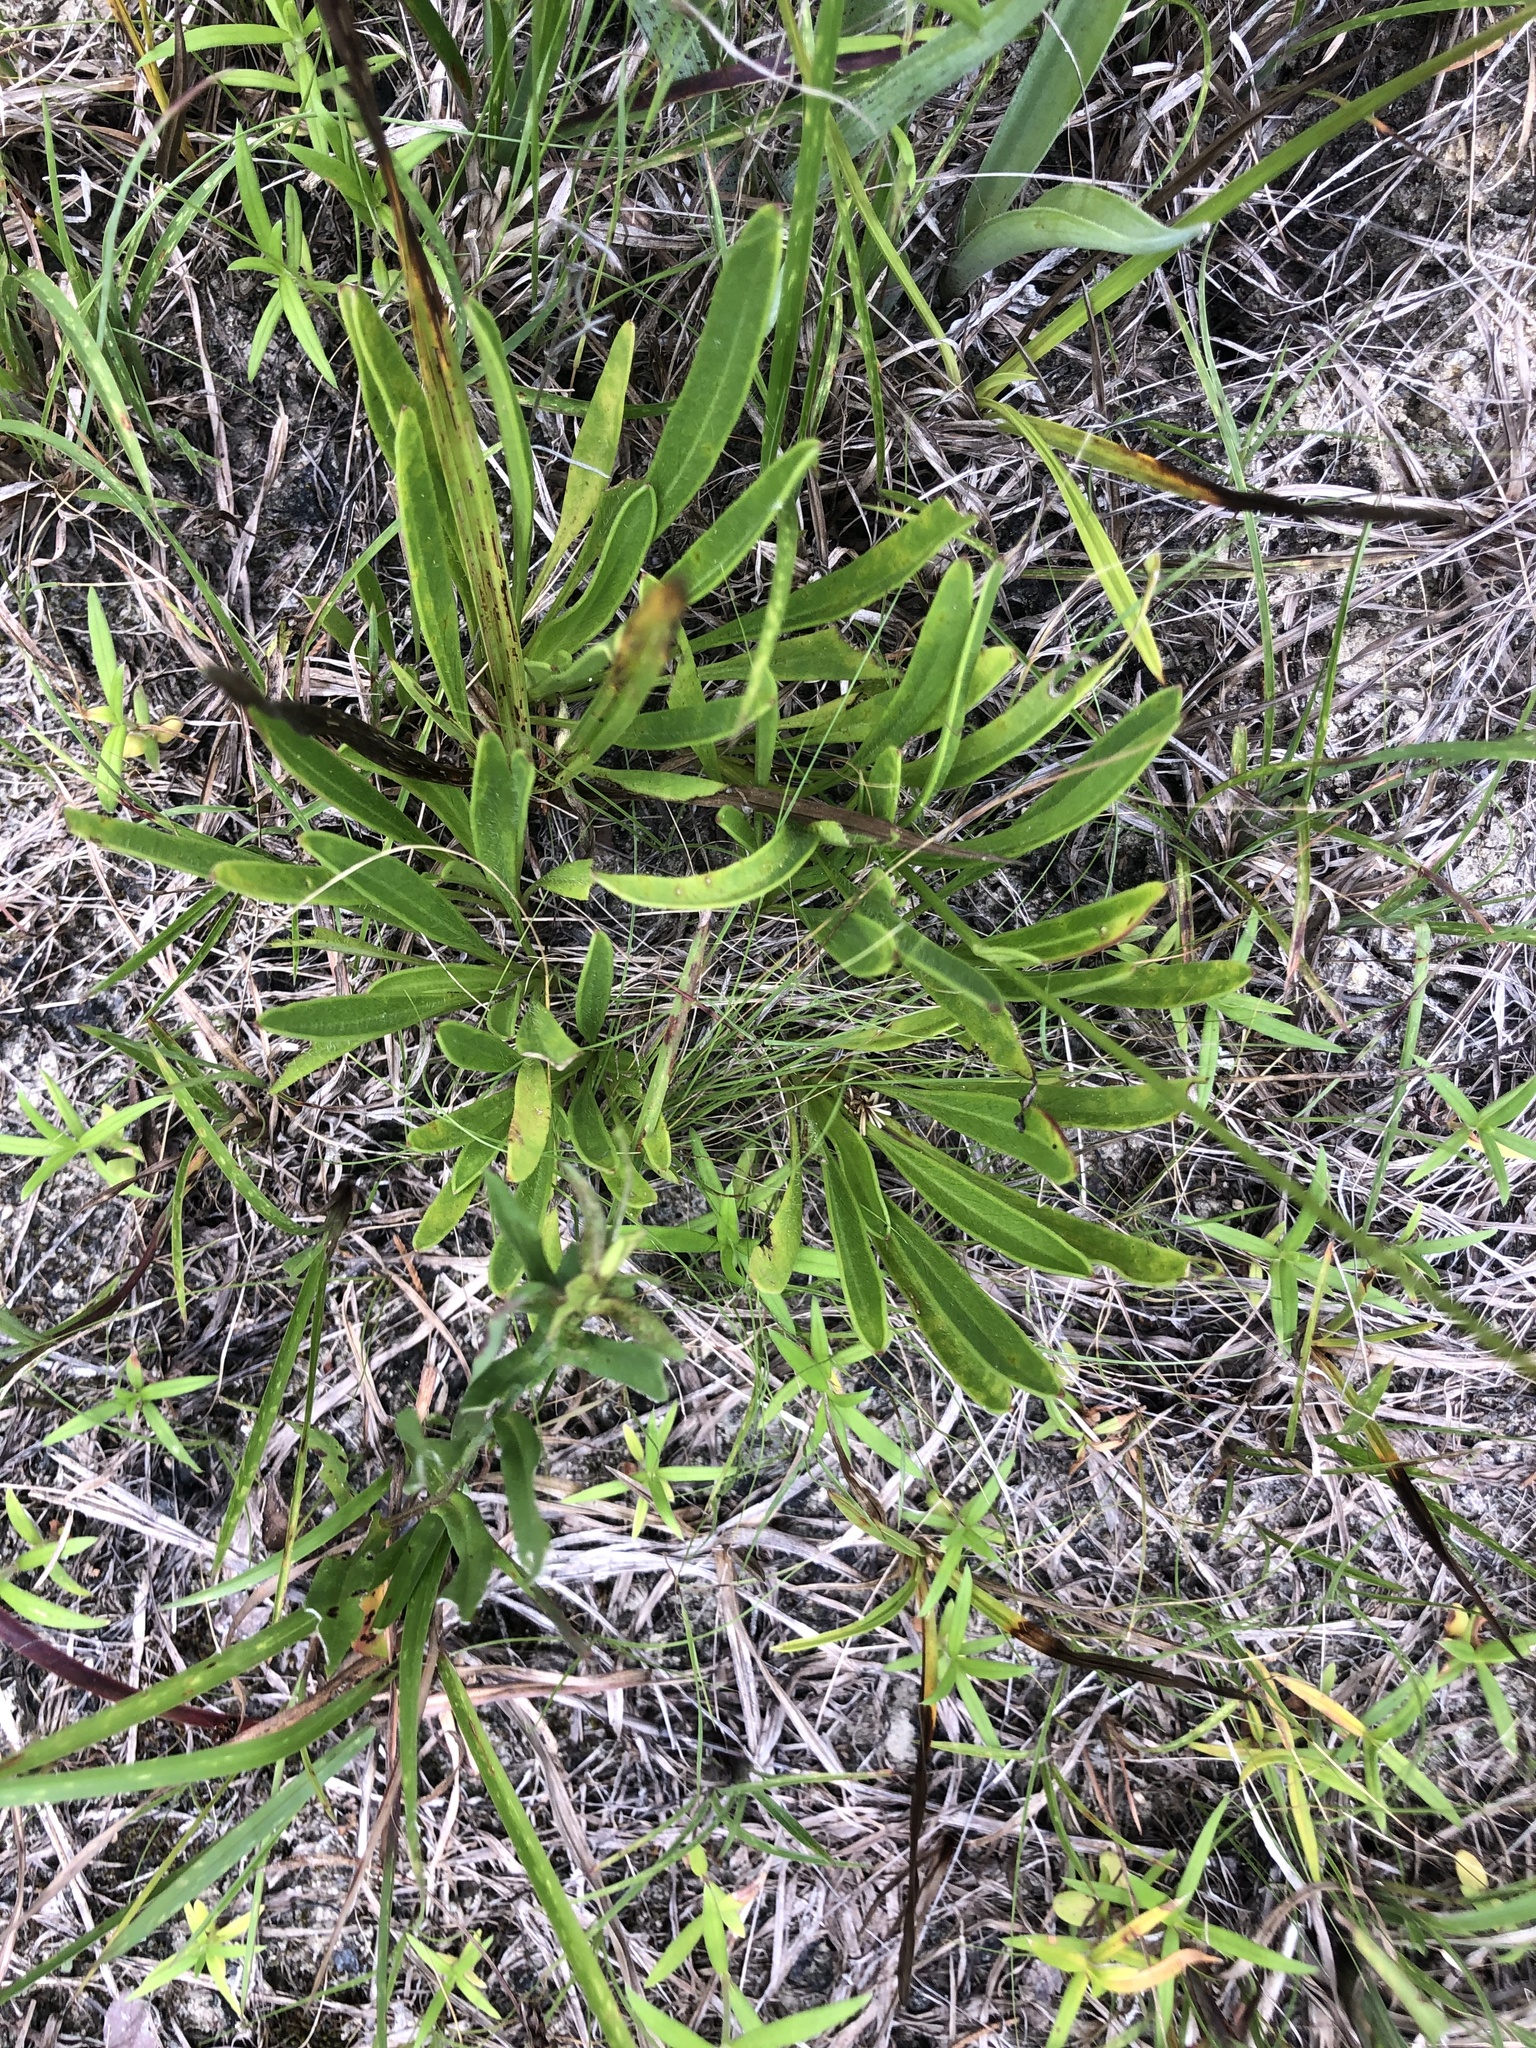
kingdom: Plantae
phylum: Tracheophyta
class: Magnoliopsida
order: Asterales
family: Asteraceae
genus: Coreopsis
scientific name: Coreopsis lanceolata
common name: Garden coreopsis
